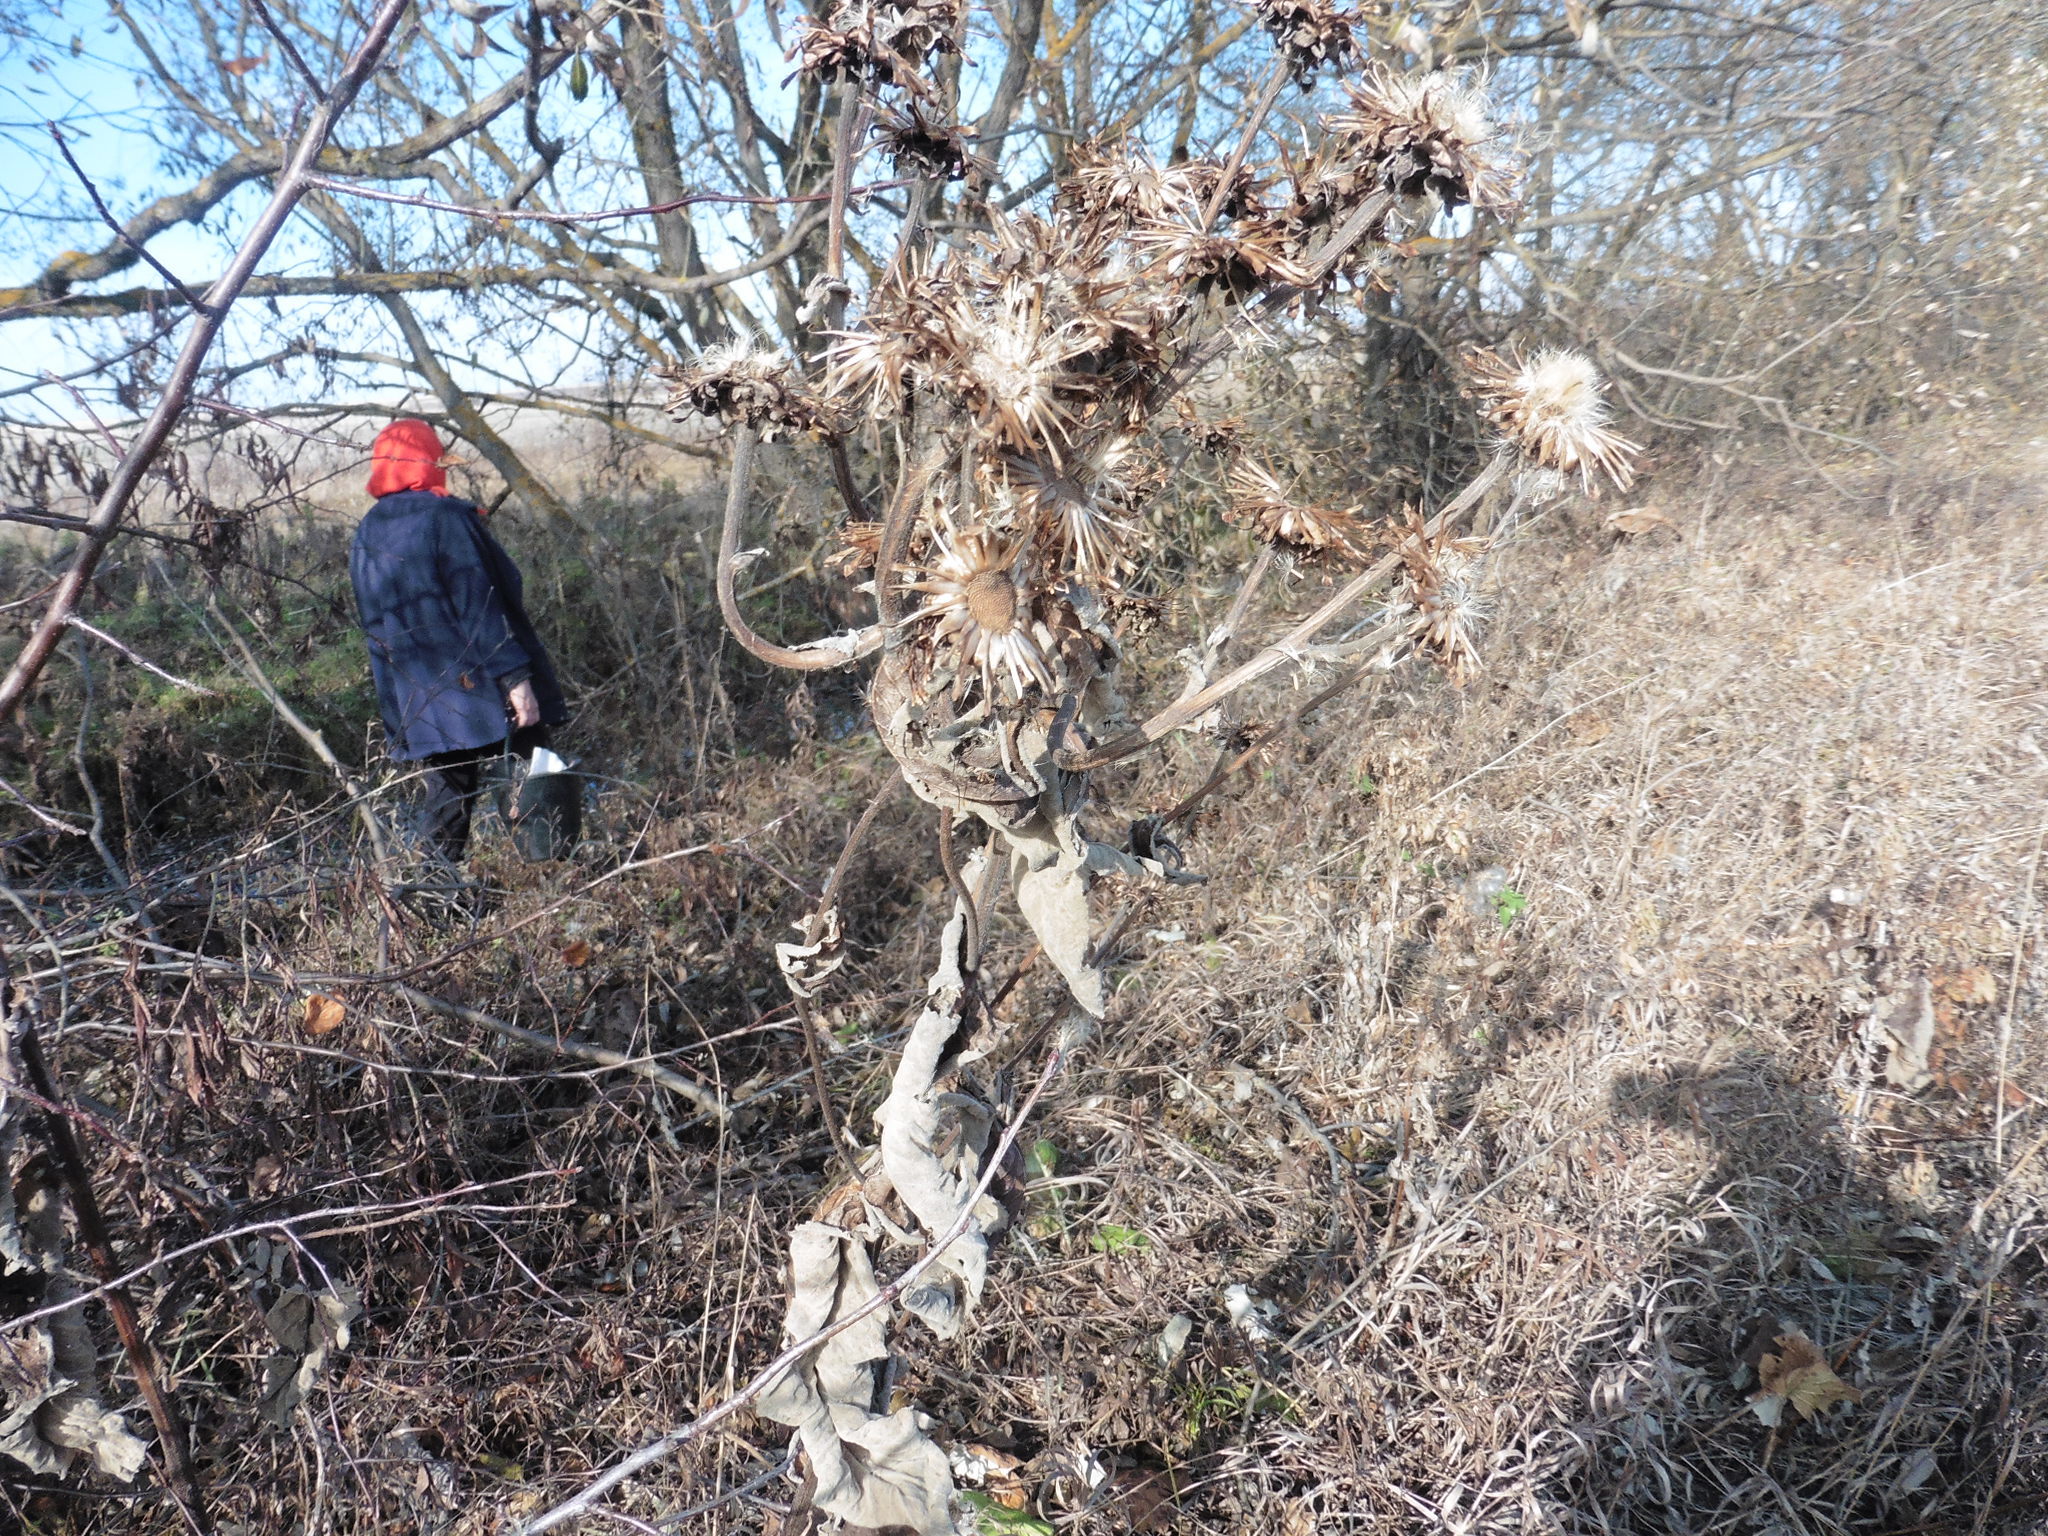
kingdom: Plantae
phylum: Tracheophyta
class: Magnoliopsida
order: Asterales
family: Asteraceae
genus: Inula
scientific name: Inula helenium
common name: Elecampane
